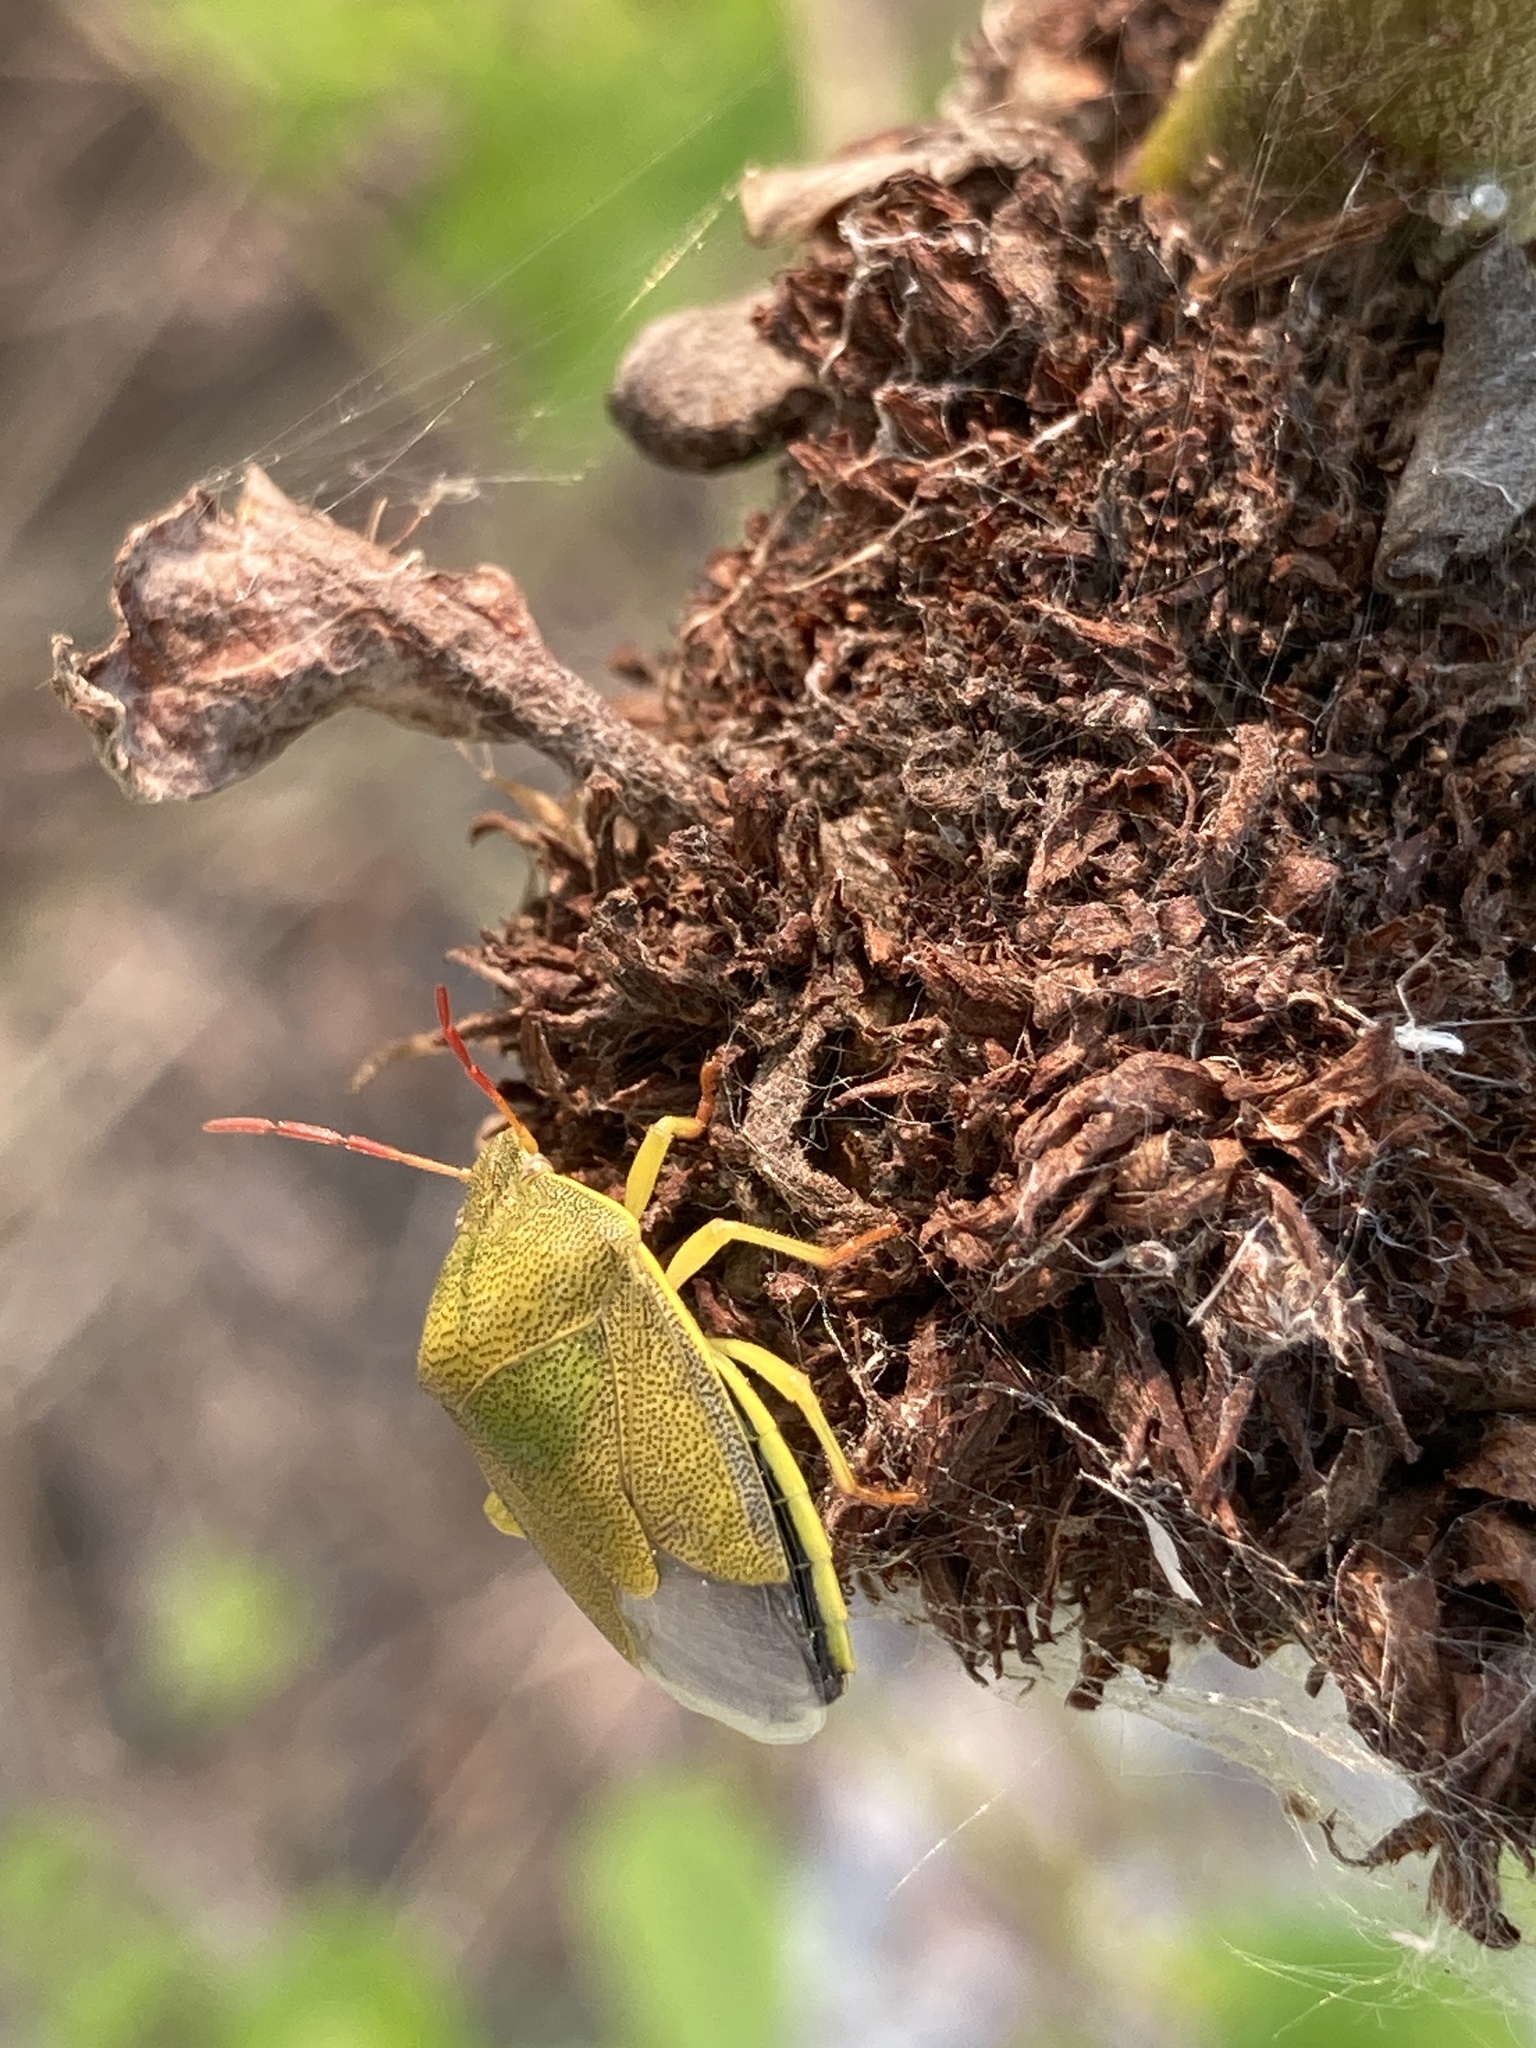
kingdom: Animalia
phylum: Arthropoda
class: Insecta
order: Hemiptera
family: Pentatomidae
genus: Piezodorus
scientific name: Piezodorus lituratus
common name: Stink bug
